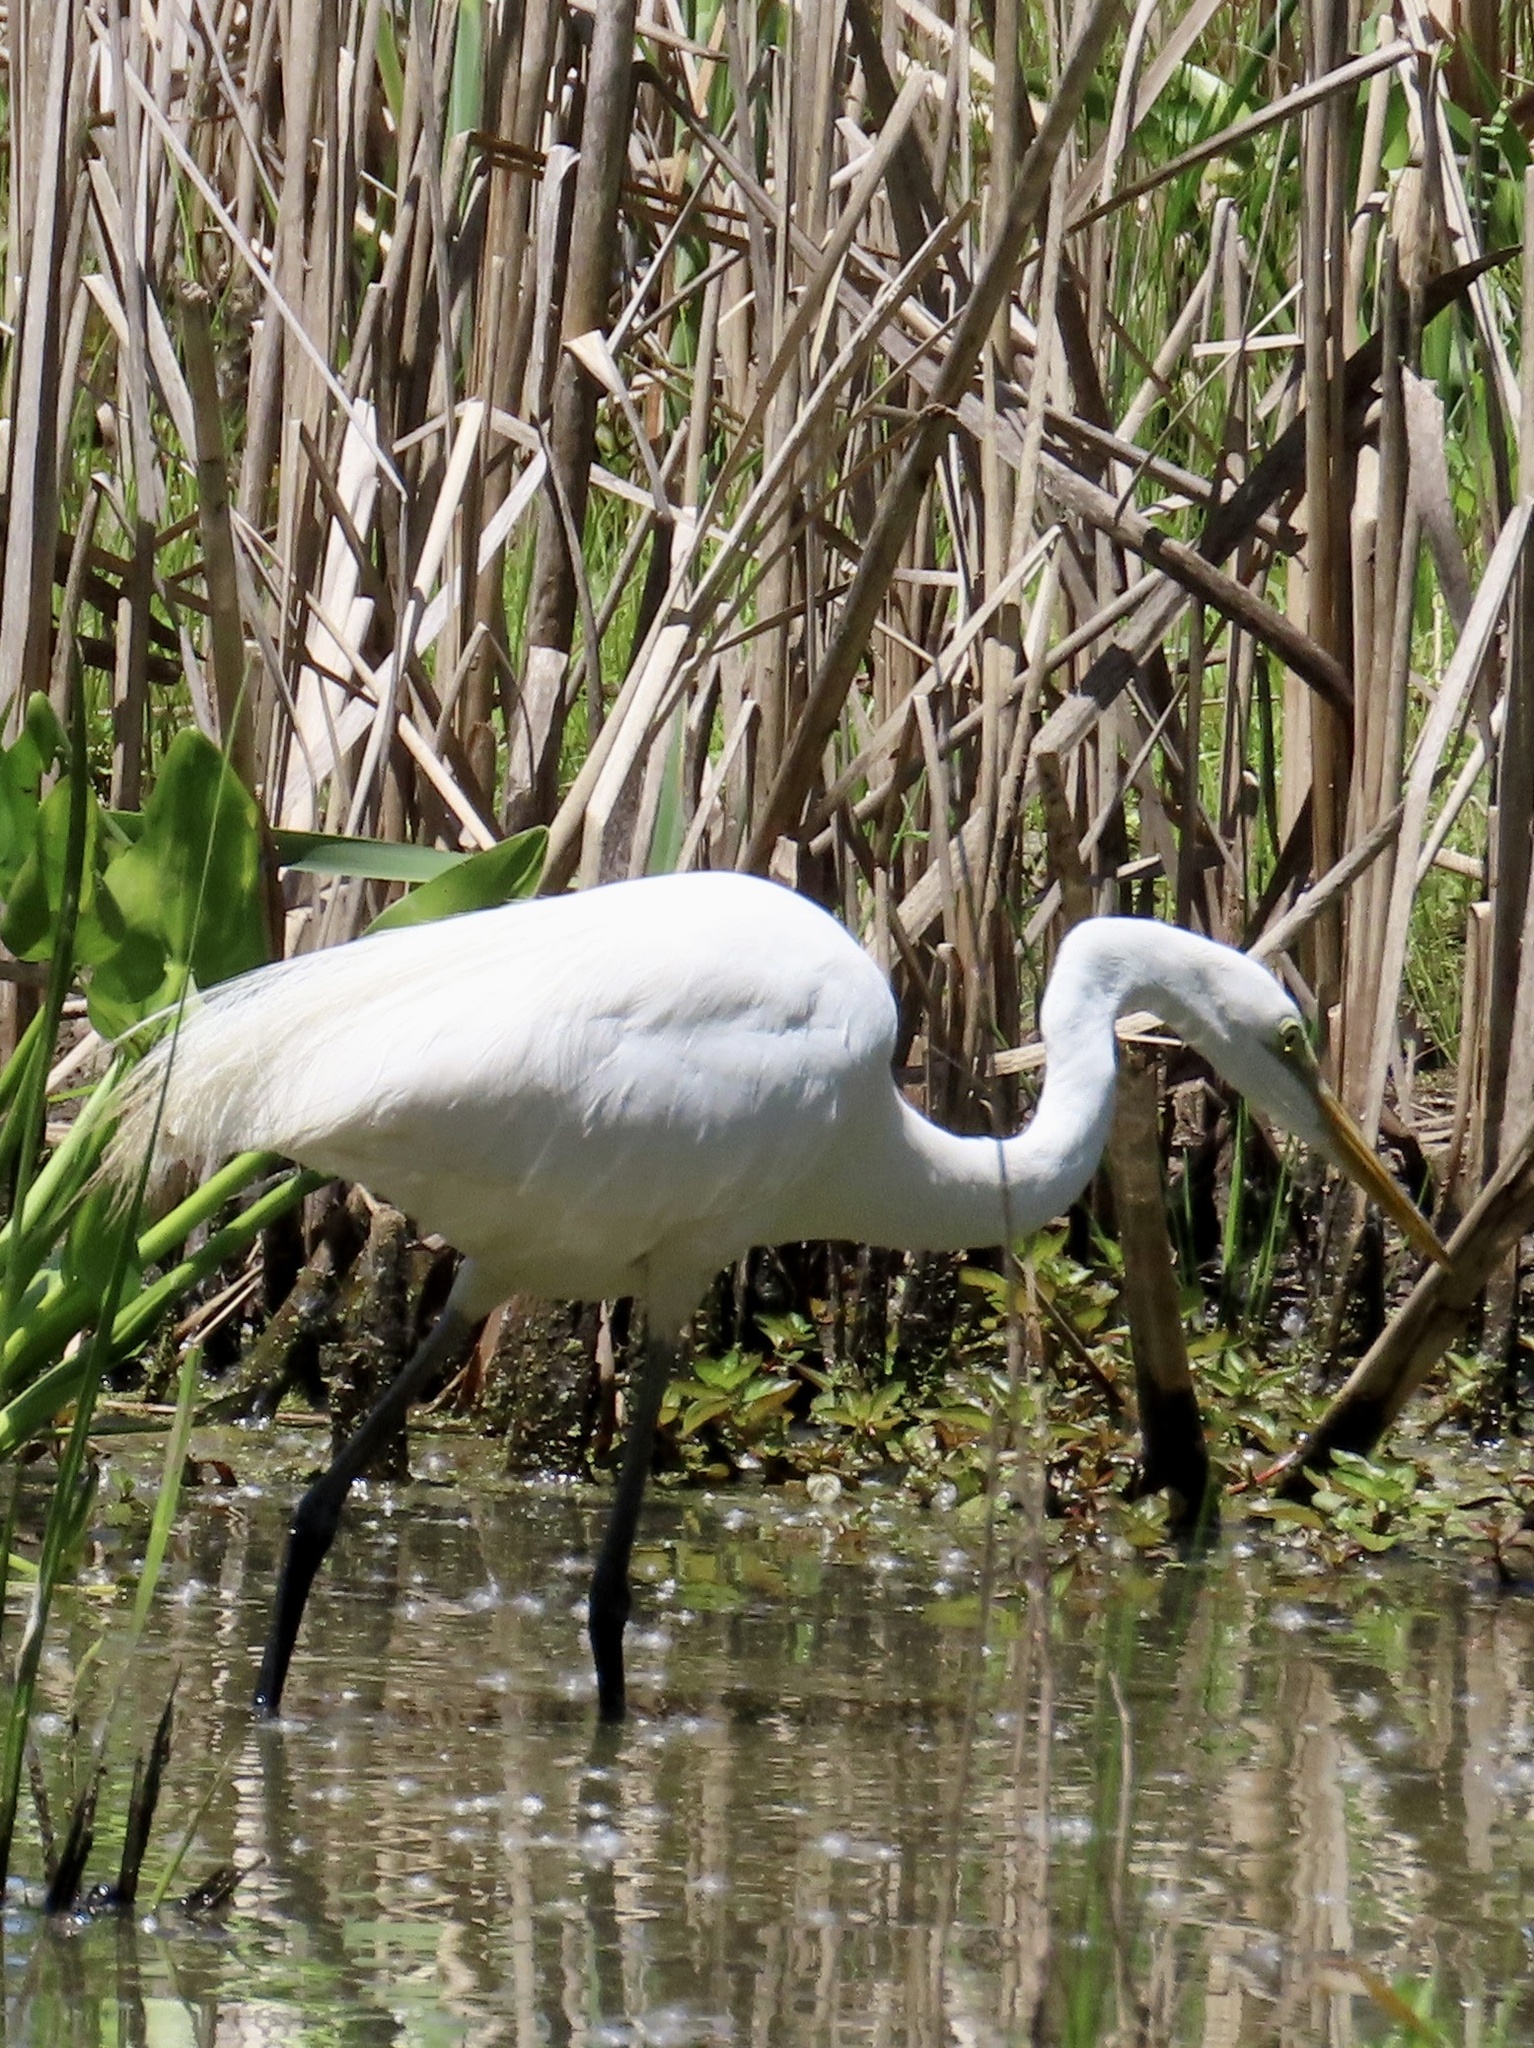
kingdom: Animalia
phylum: Chordata
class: Aves
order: Pelecaniformes
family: Ardeidae
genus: Ardea
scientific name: Ardea alba
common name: Great egret
